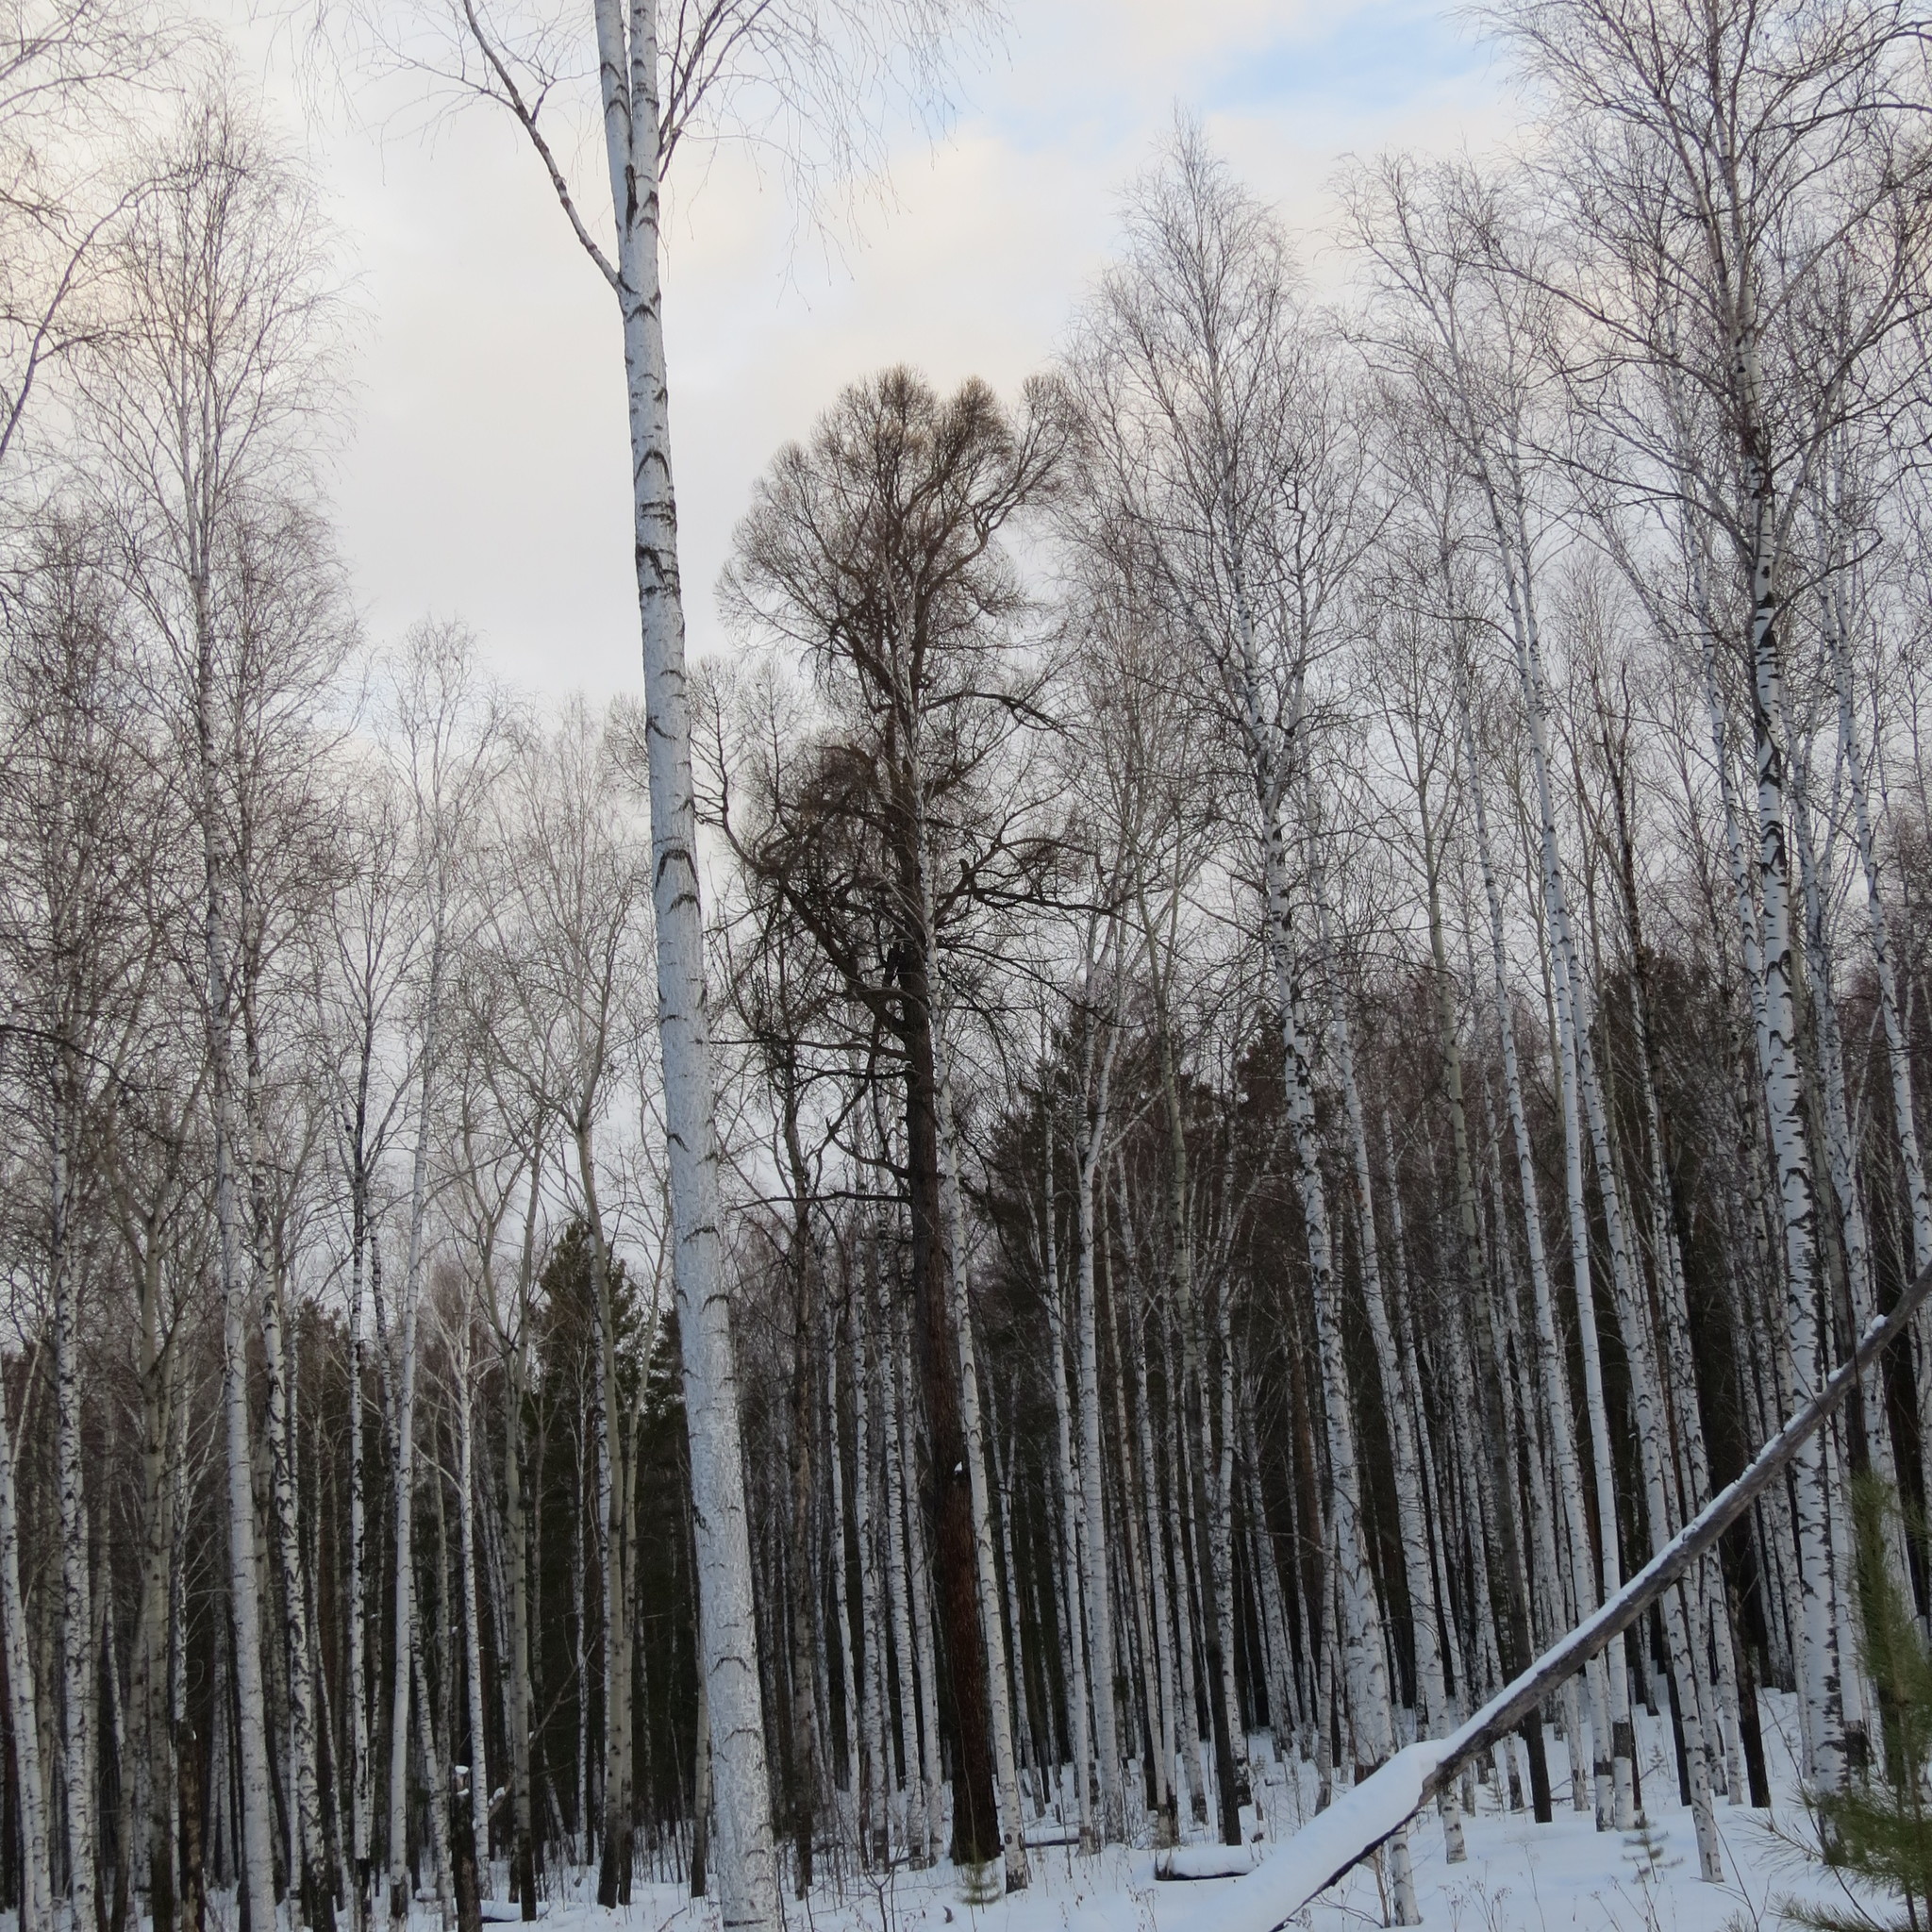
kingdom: Plantae
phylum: Tracheophyta
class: Pinopsida
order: Pinales
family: Pinaceae
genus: Larix
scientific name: Larix sibirica
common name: Siberian larch
